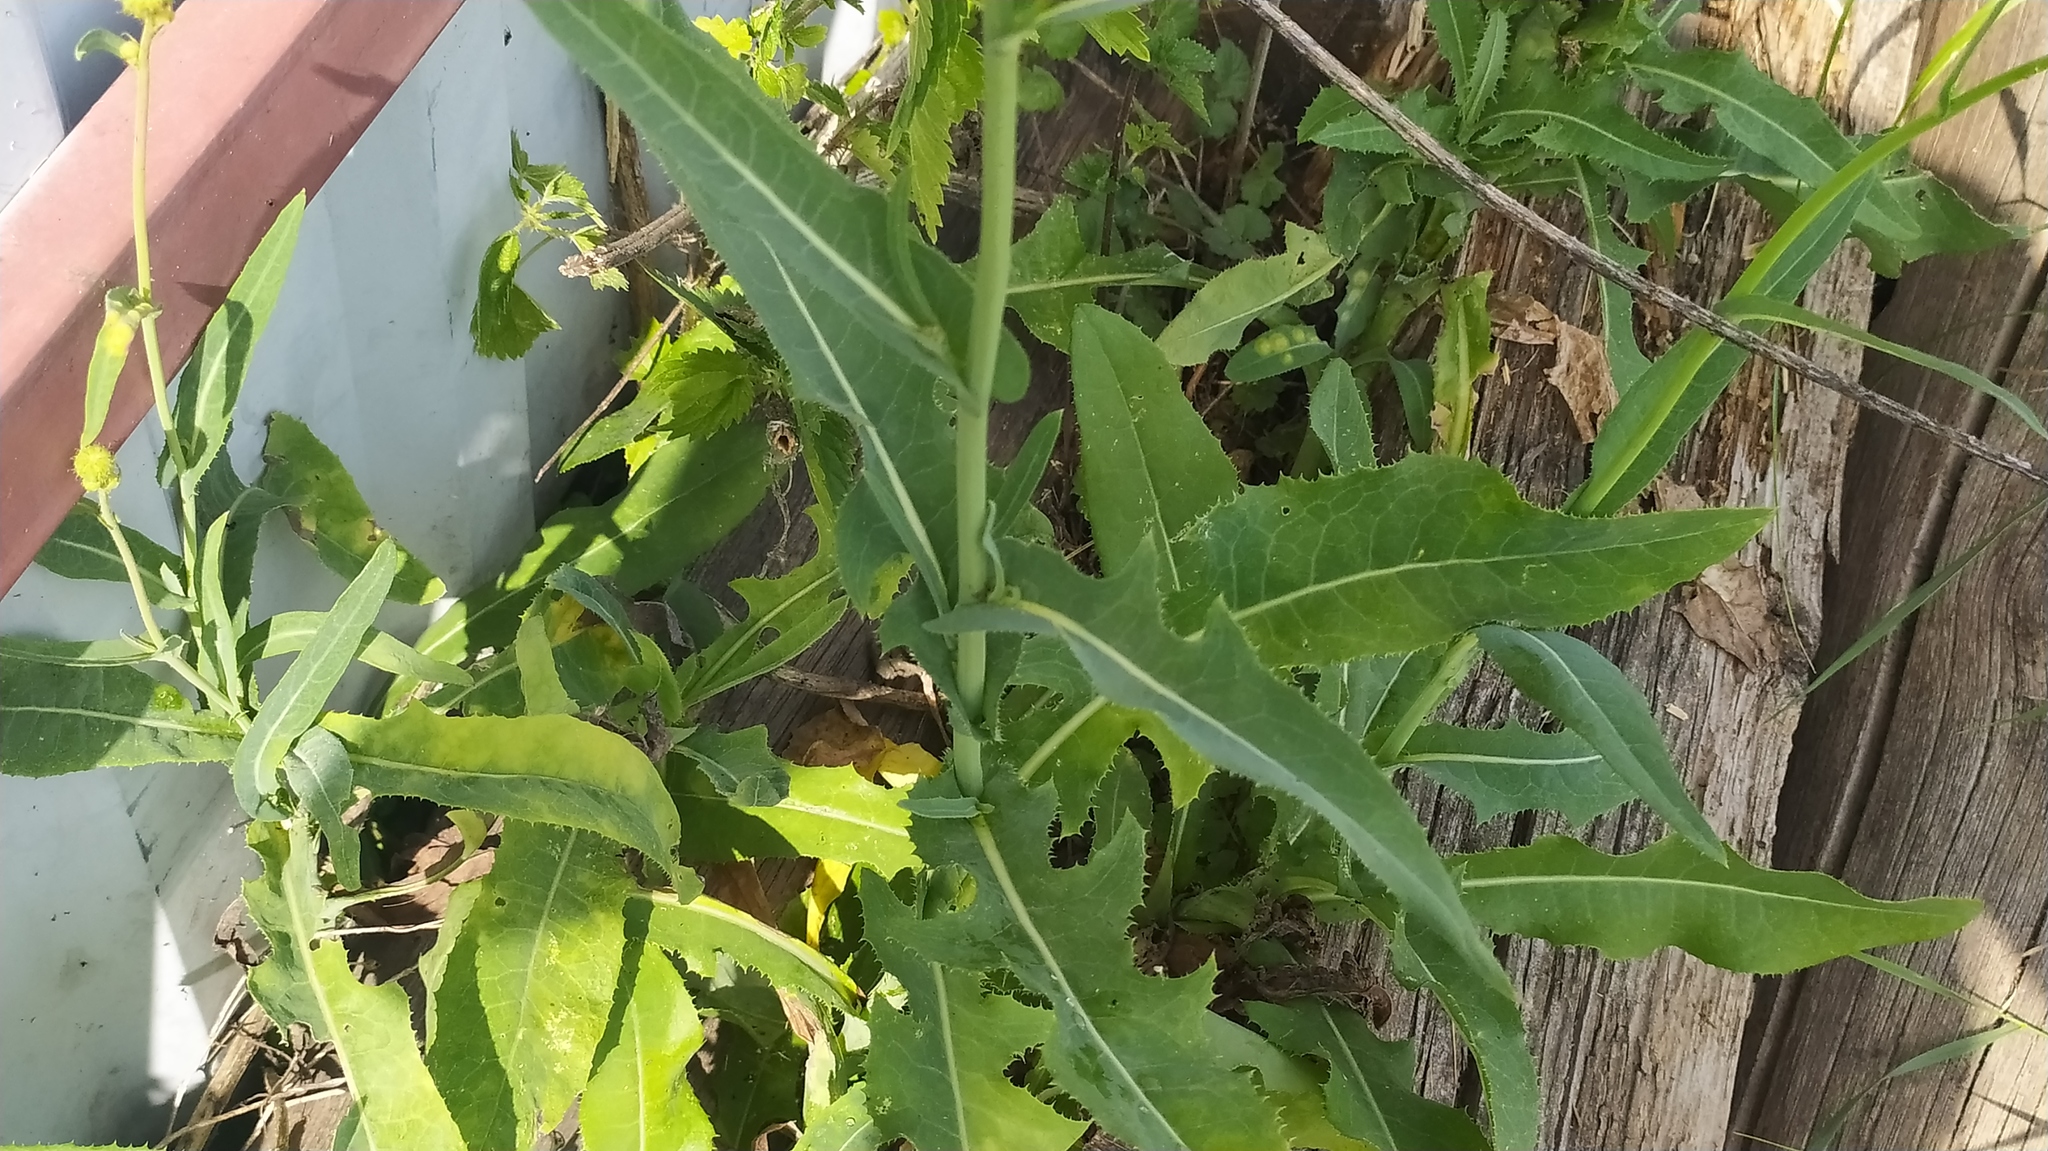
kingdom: Plantae
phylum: Tracheophyta
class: Magnoliopsida
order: Asterales
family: Asteraceae
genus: Sonchus
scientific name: Sonchus arvensis
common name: Perennial sow-thistle
